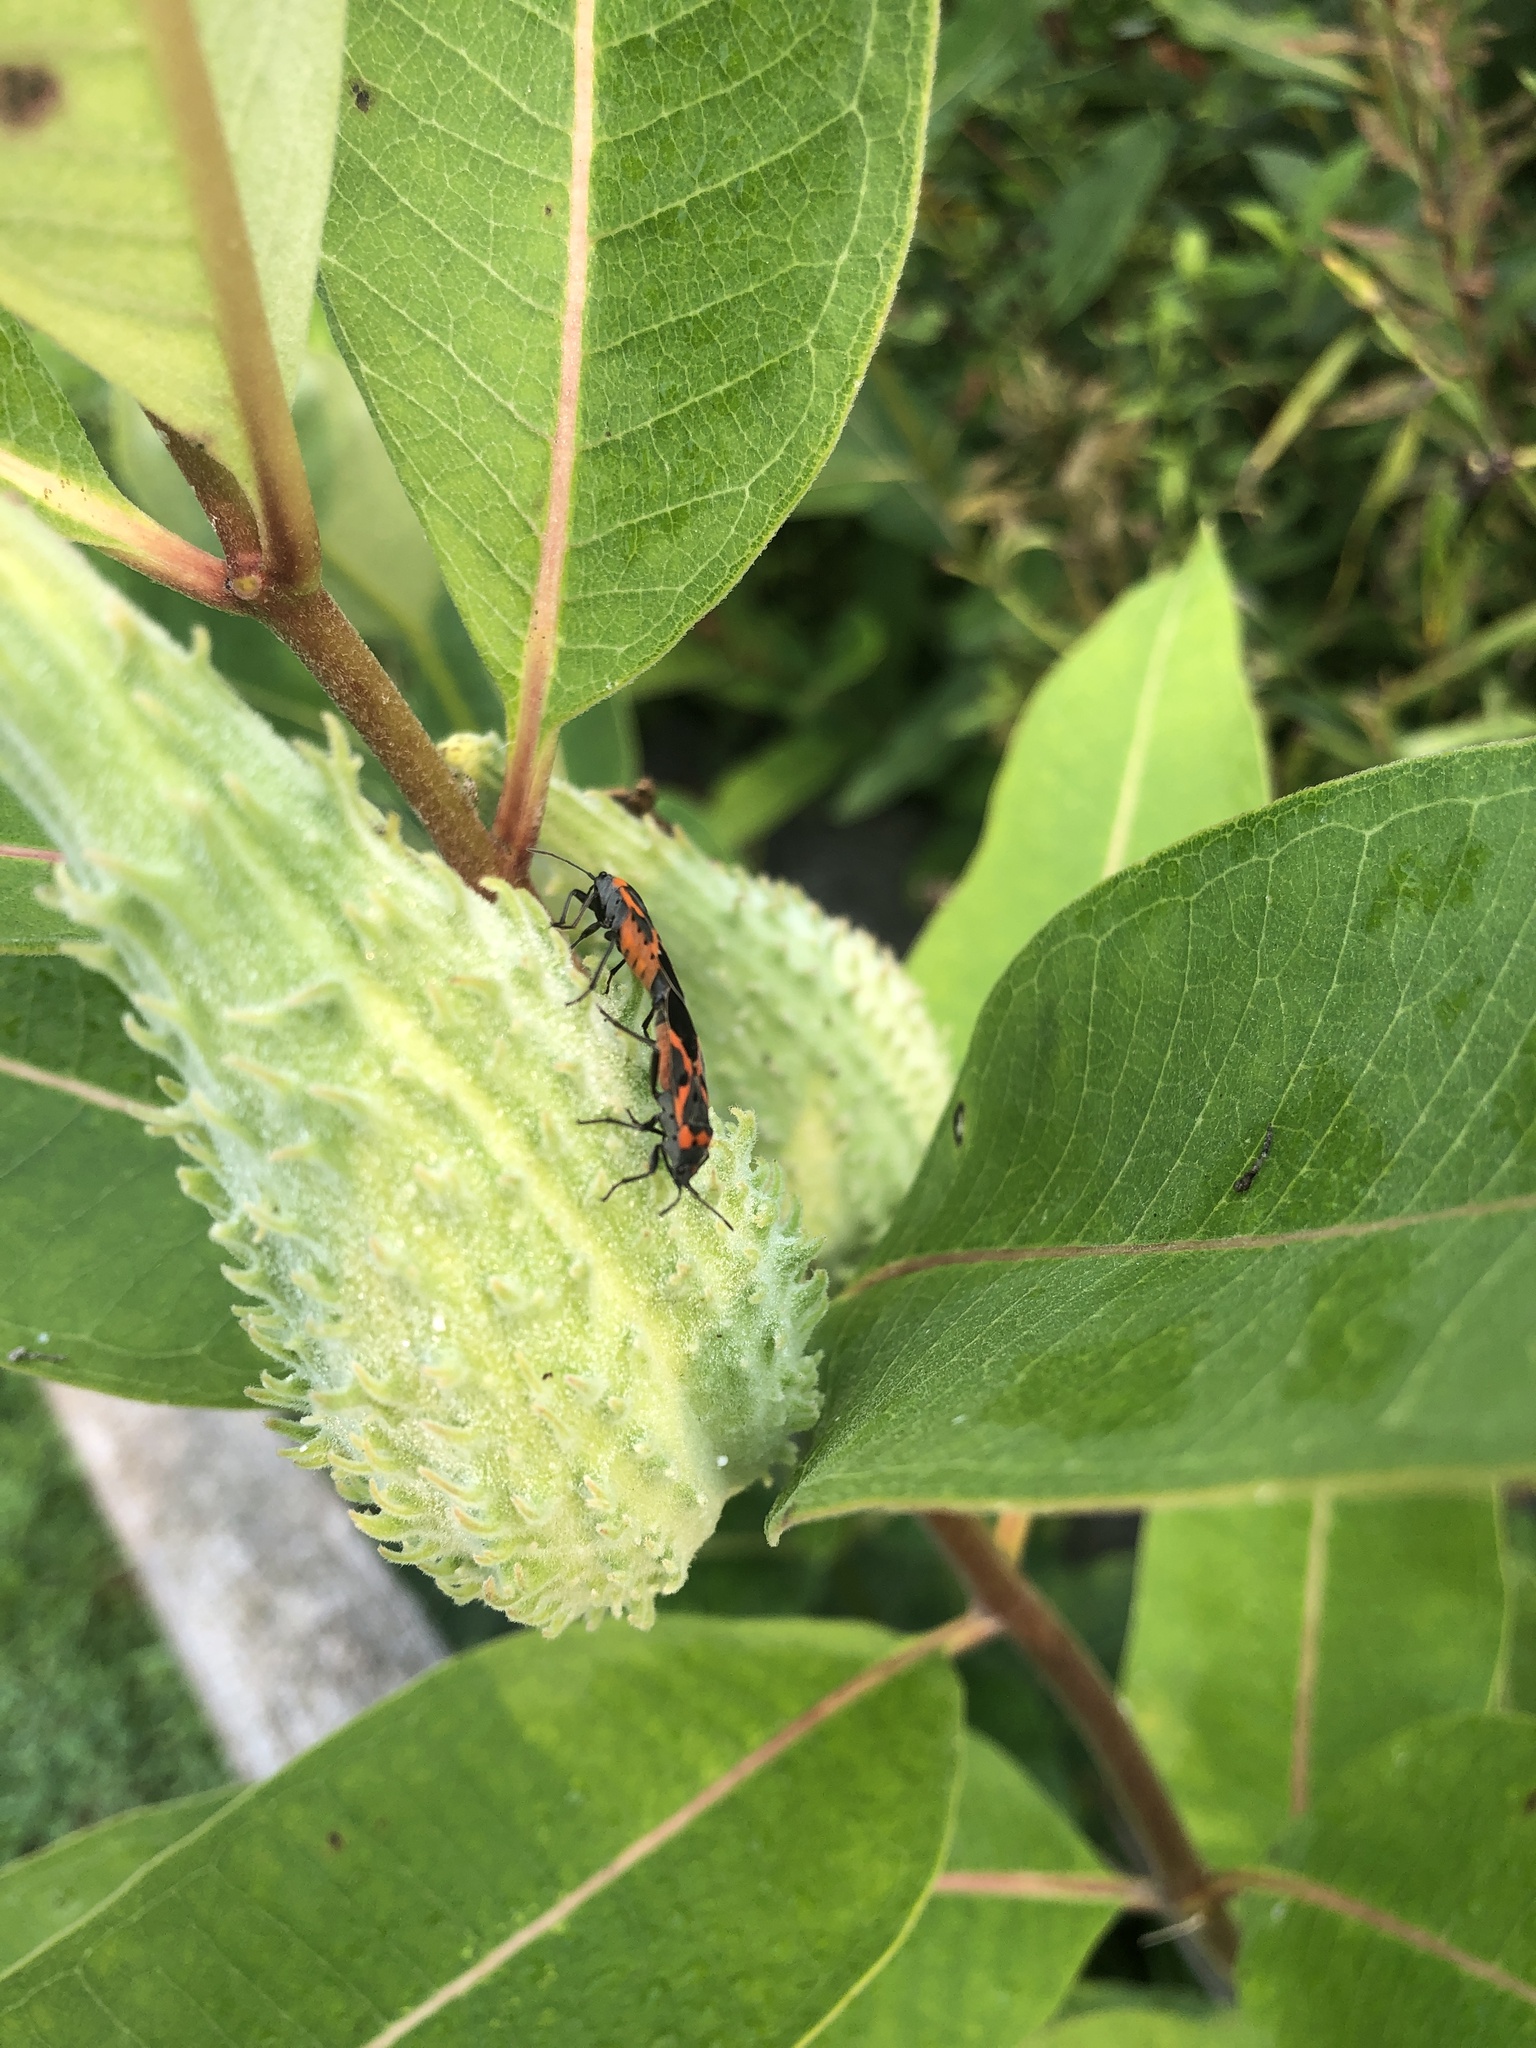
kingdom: Animalia
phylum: Arthropoda
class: Insecta
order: Hemiptera
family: Lygaeidae
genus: Lygaeus
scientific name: Lygaeus kalmii
